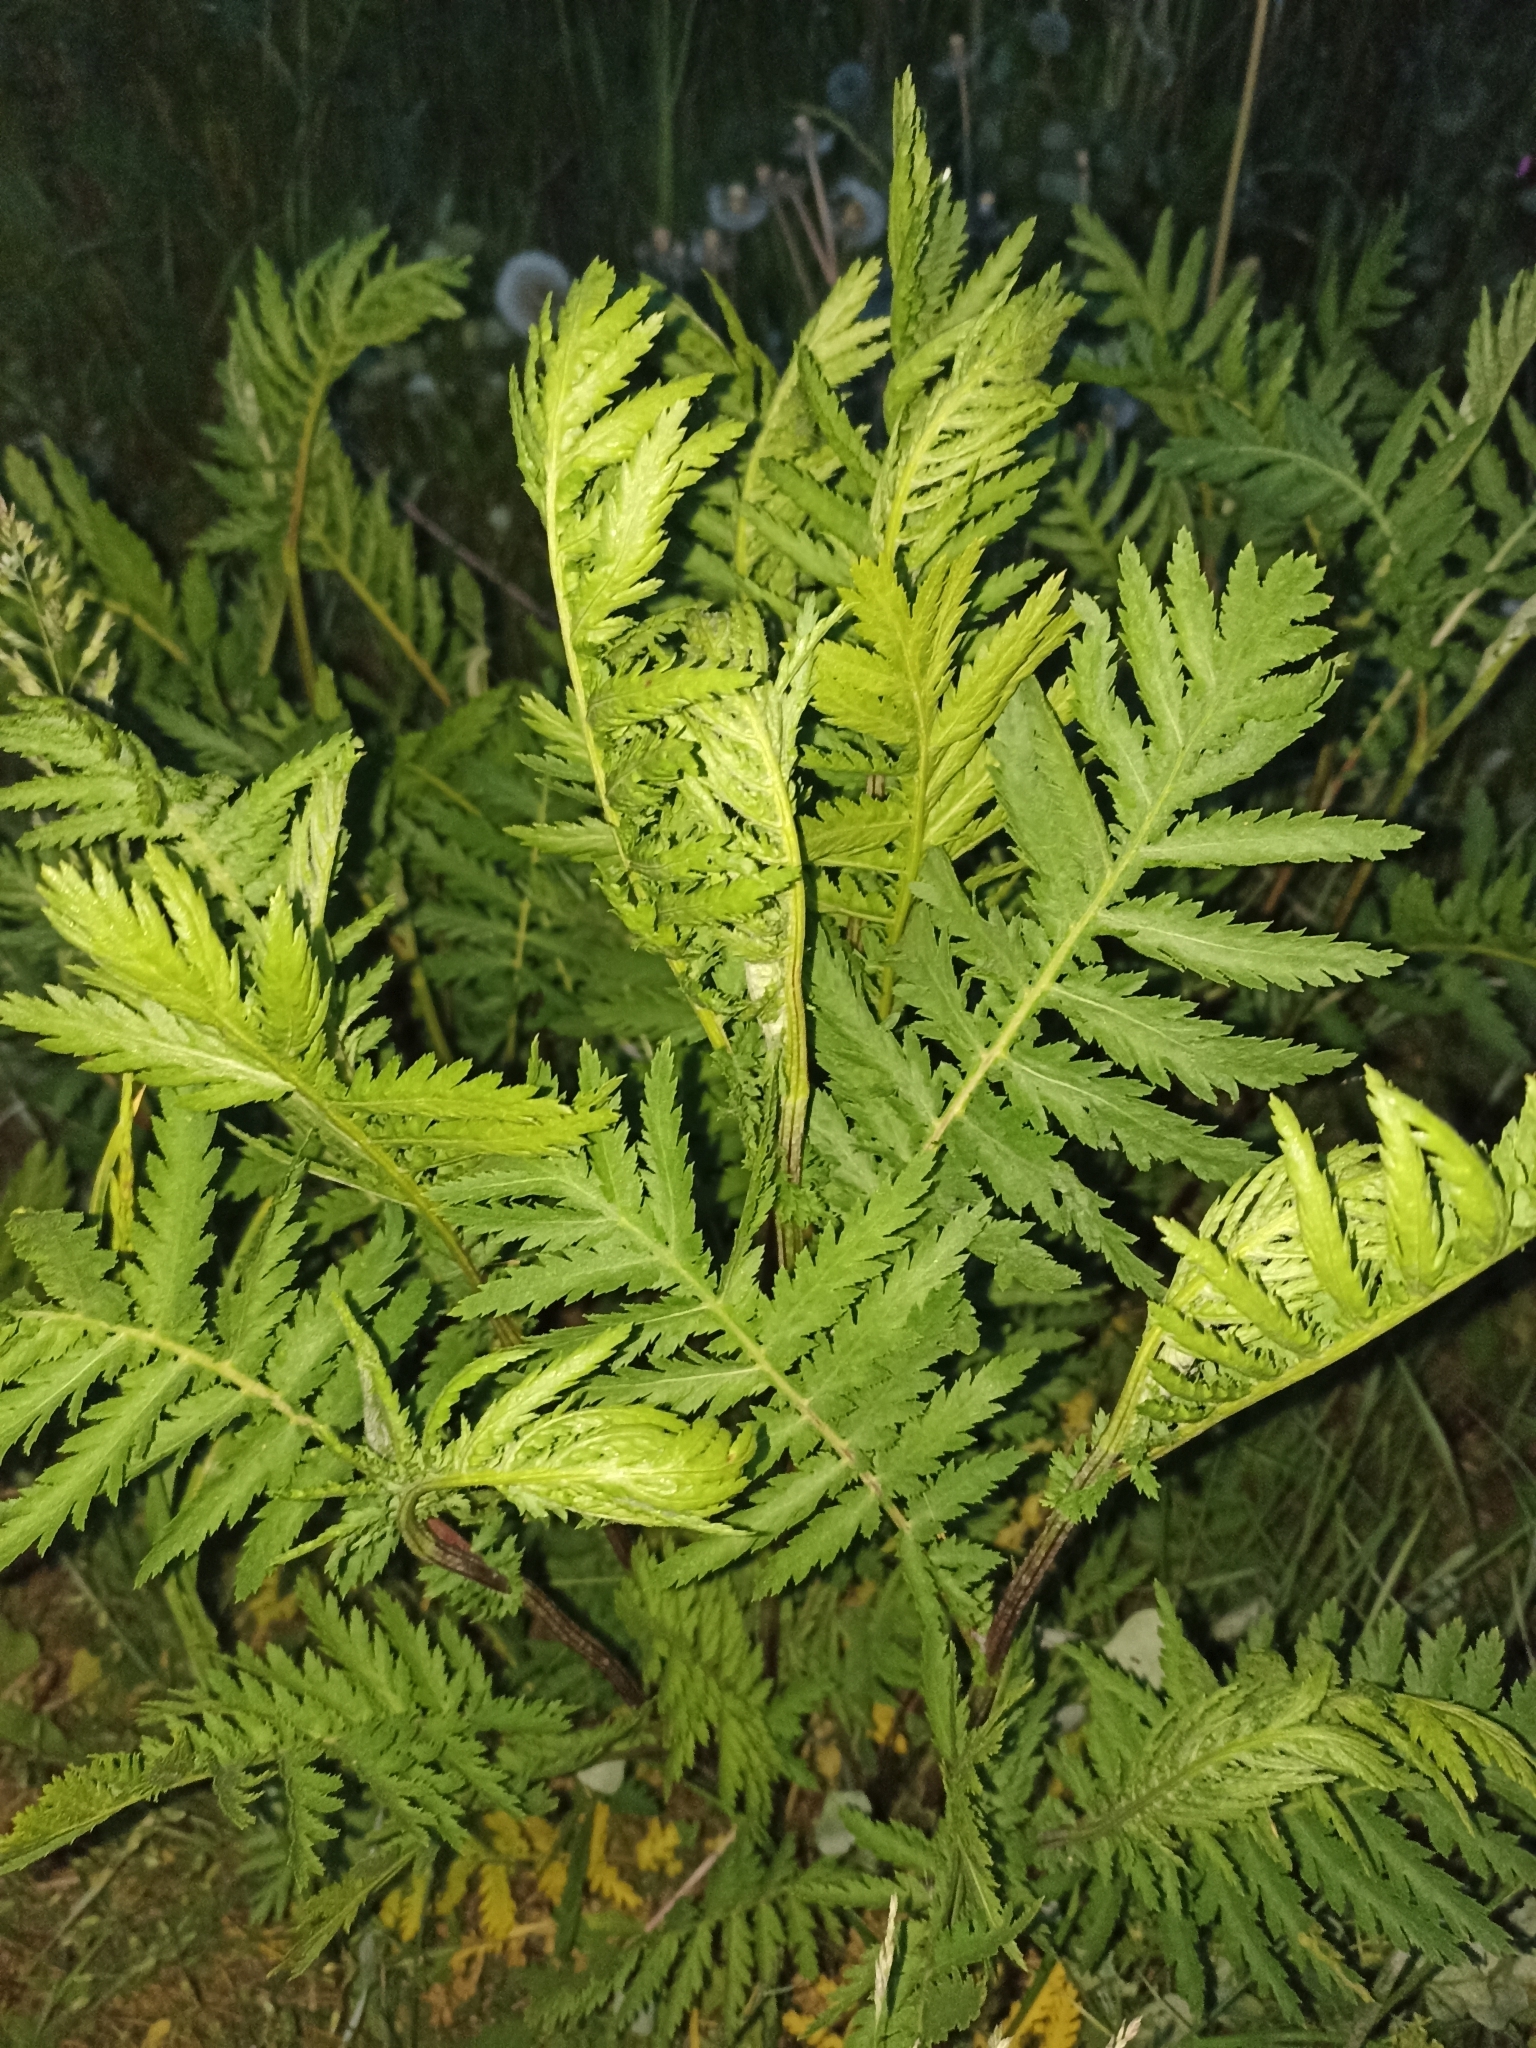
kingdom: Plantae
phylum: Tracheophyta
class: Magnoliopsida
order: Asterales
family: Asteraceae
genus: Tanacetum
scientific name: Tanacetum vulgare
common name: Common tansy
